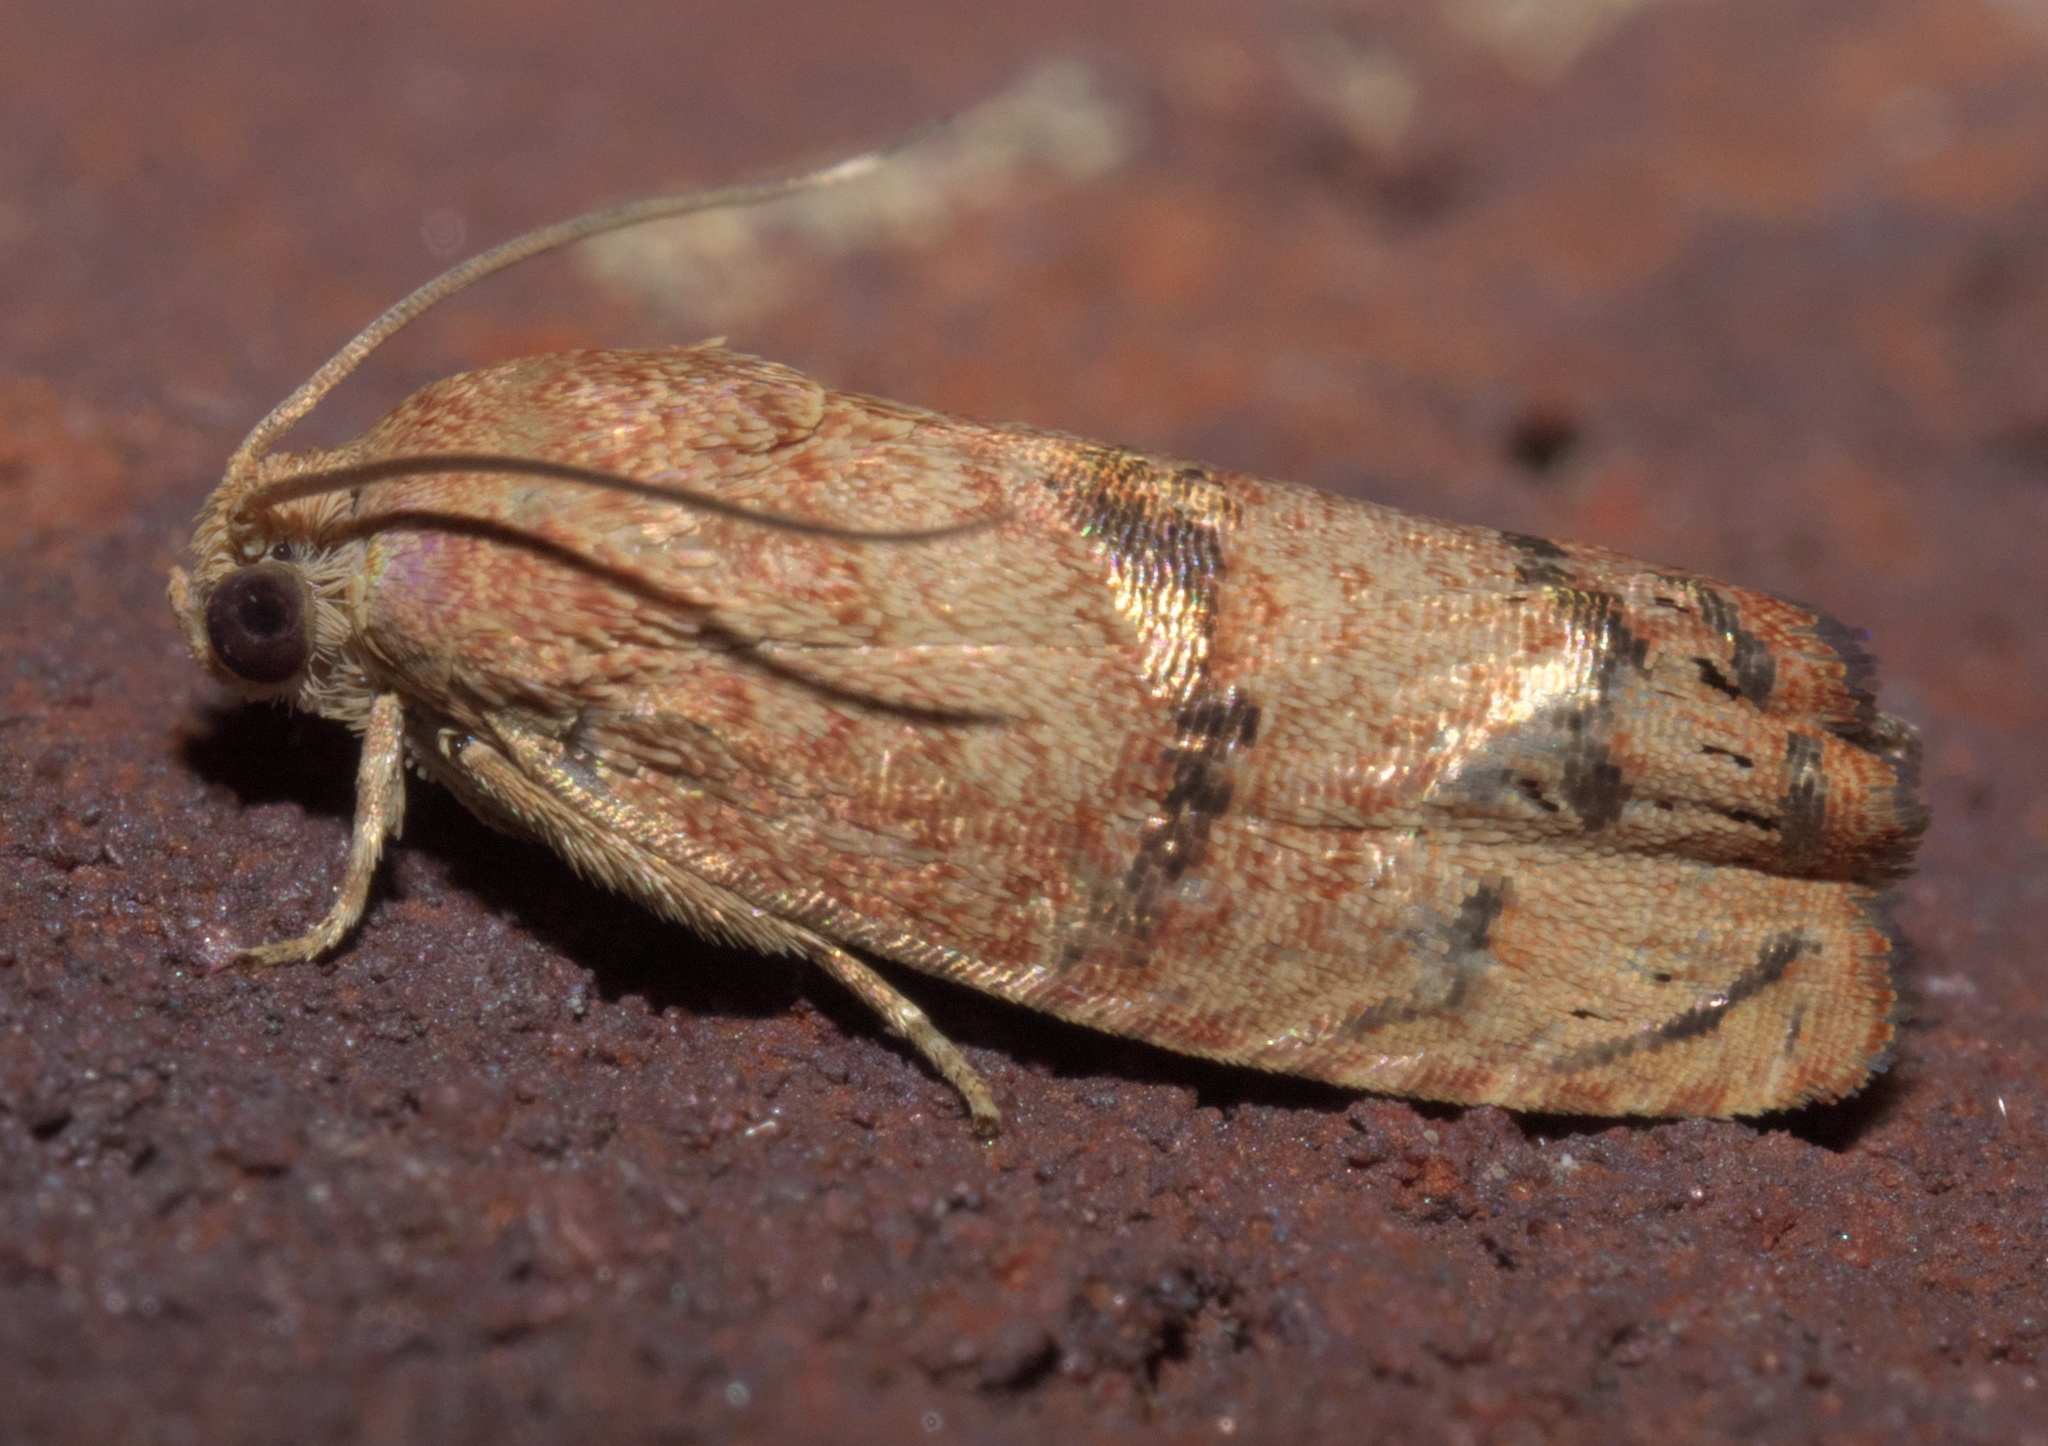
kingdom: Animalia
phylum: Arthropoda
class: Insecta
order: Lepidoptera
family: Tortricidae
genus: Cydia
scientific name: Cydia latiferreana
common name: Filbertworm moth
